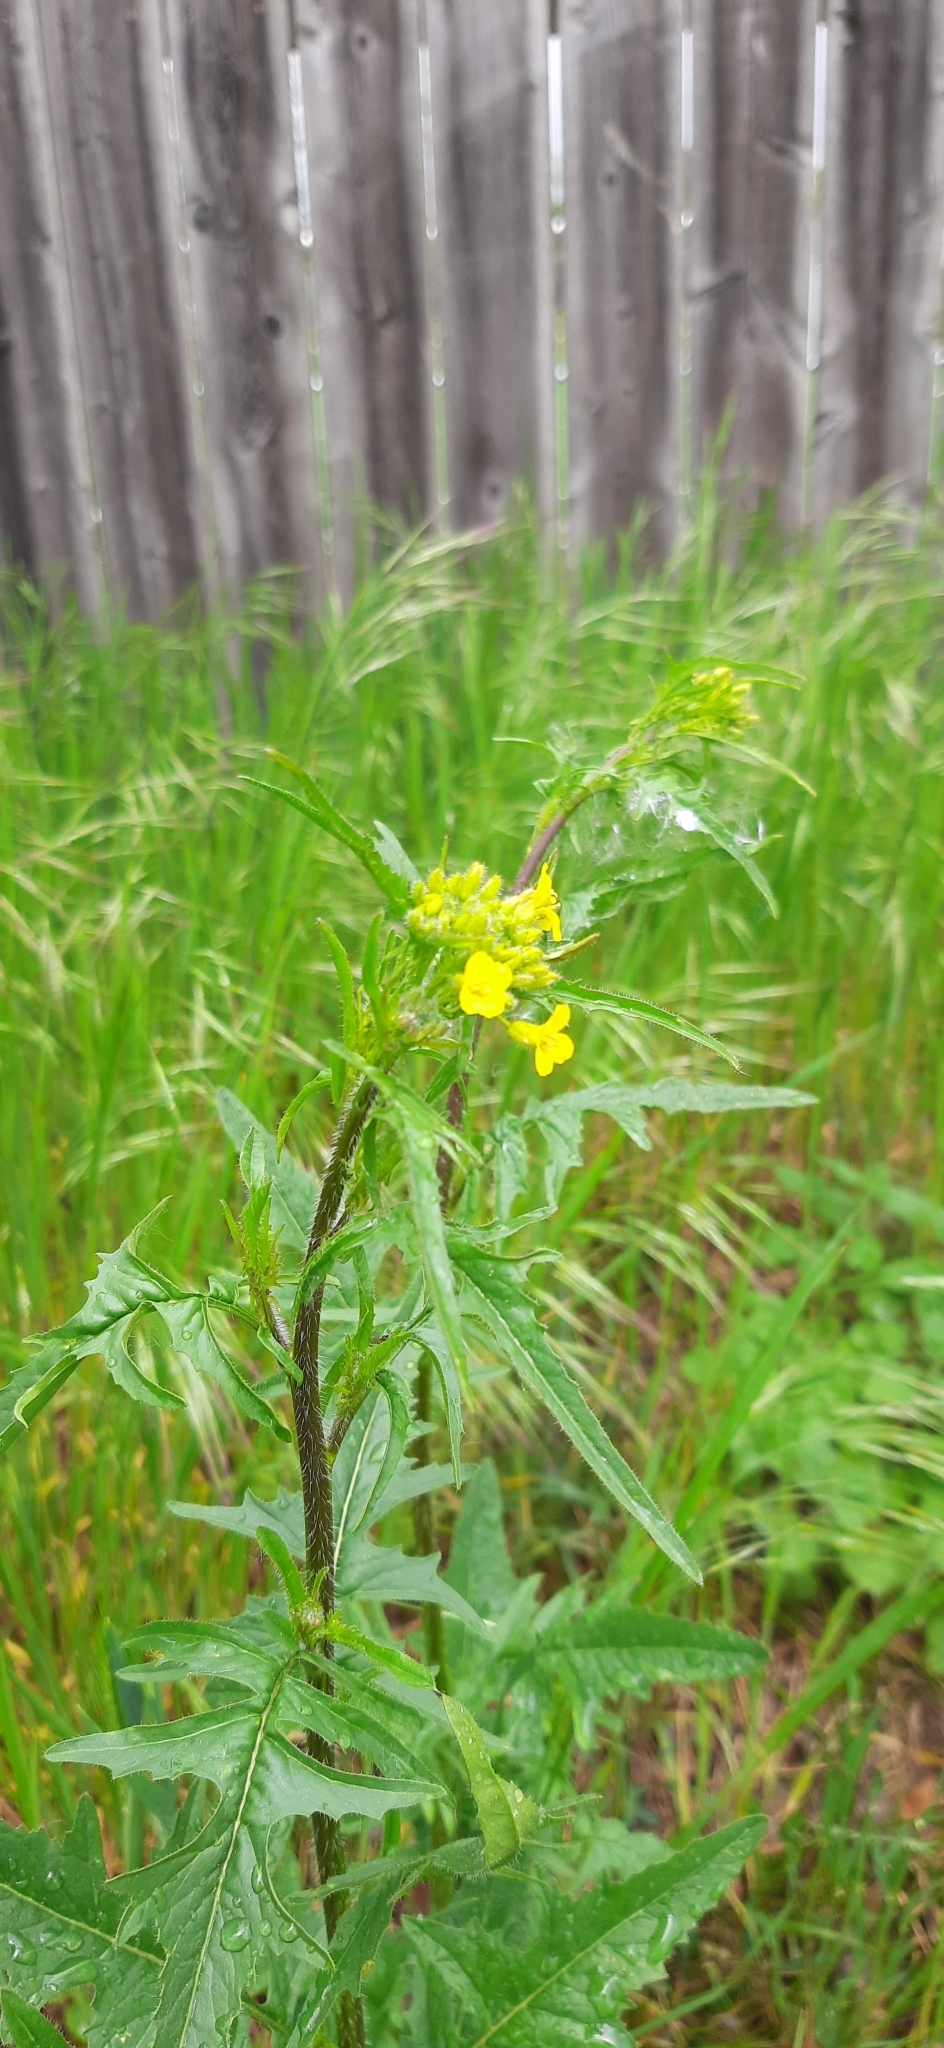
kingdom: Plantae
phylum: Tracheophyta
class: Magnoliopsida
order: Brassicales
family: Brassicaceae
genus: Sisymbrium
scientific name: Sisymbrium loeselii
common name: False london-rocket
